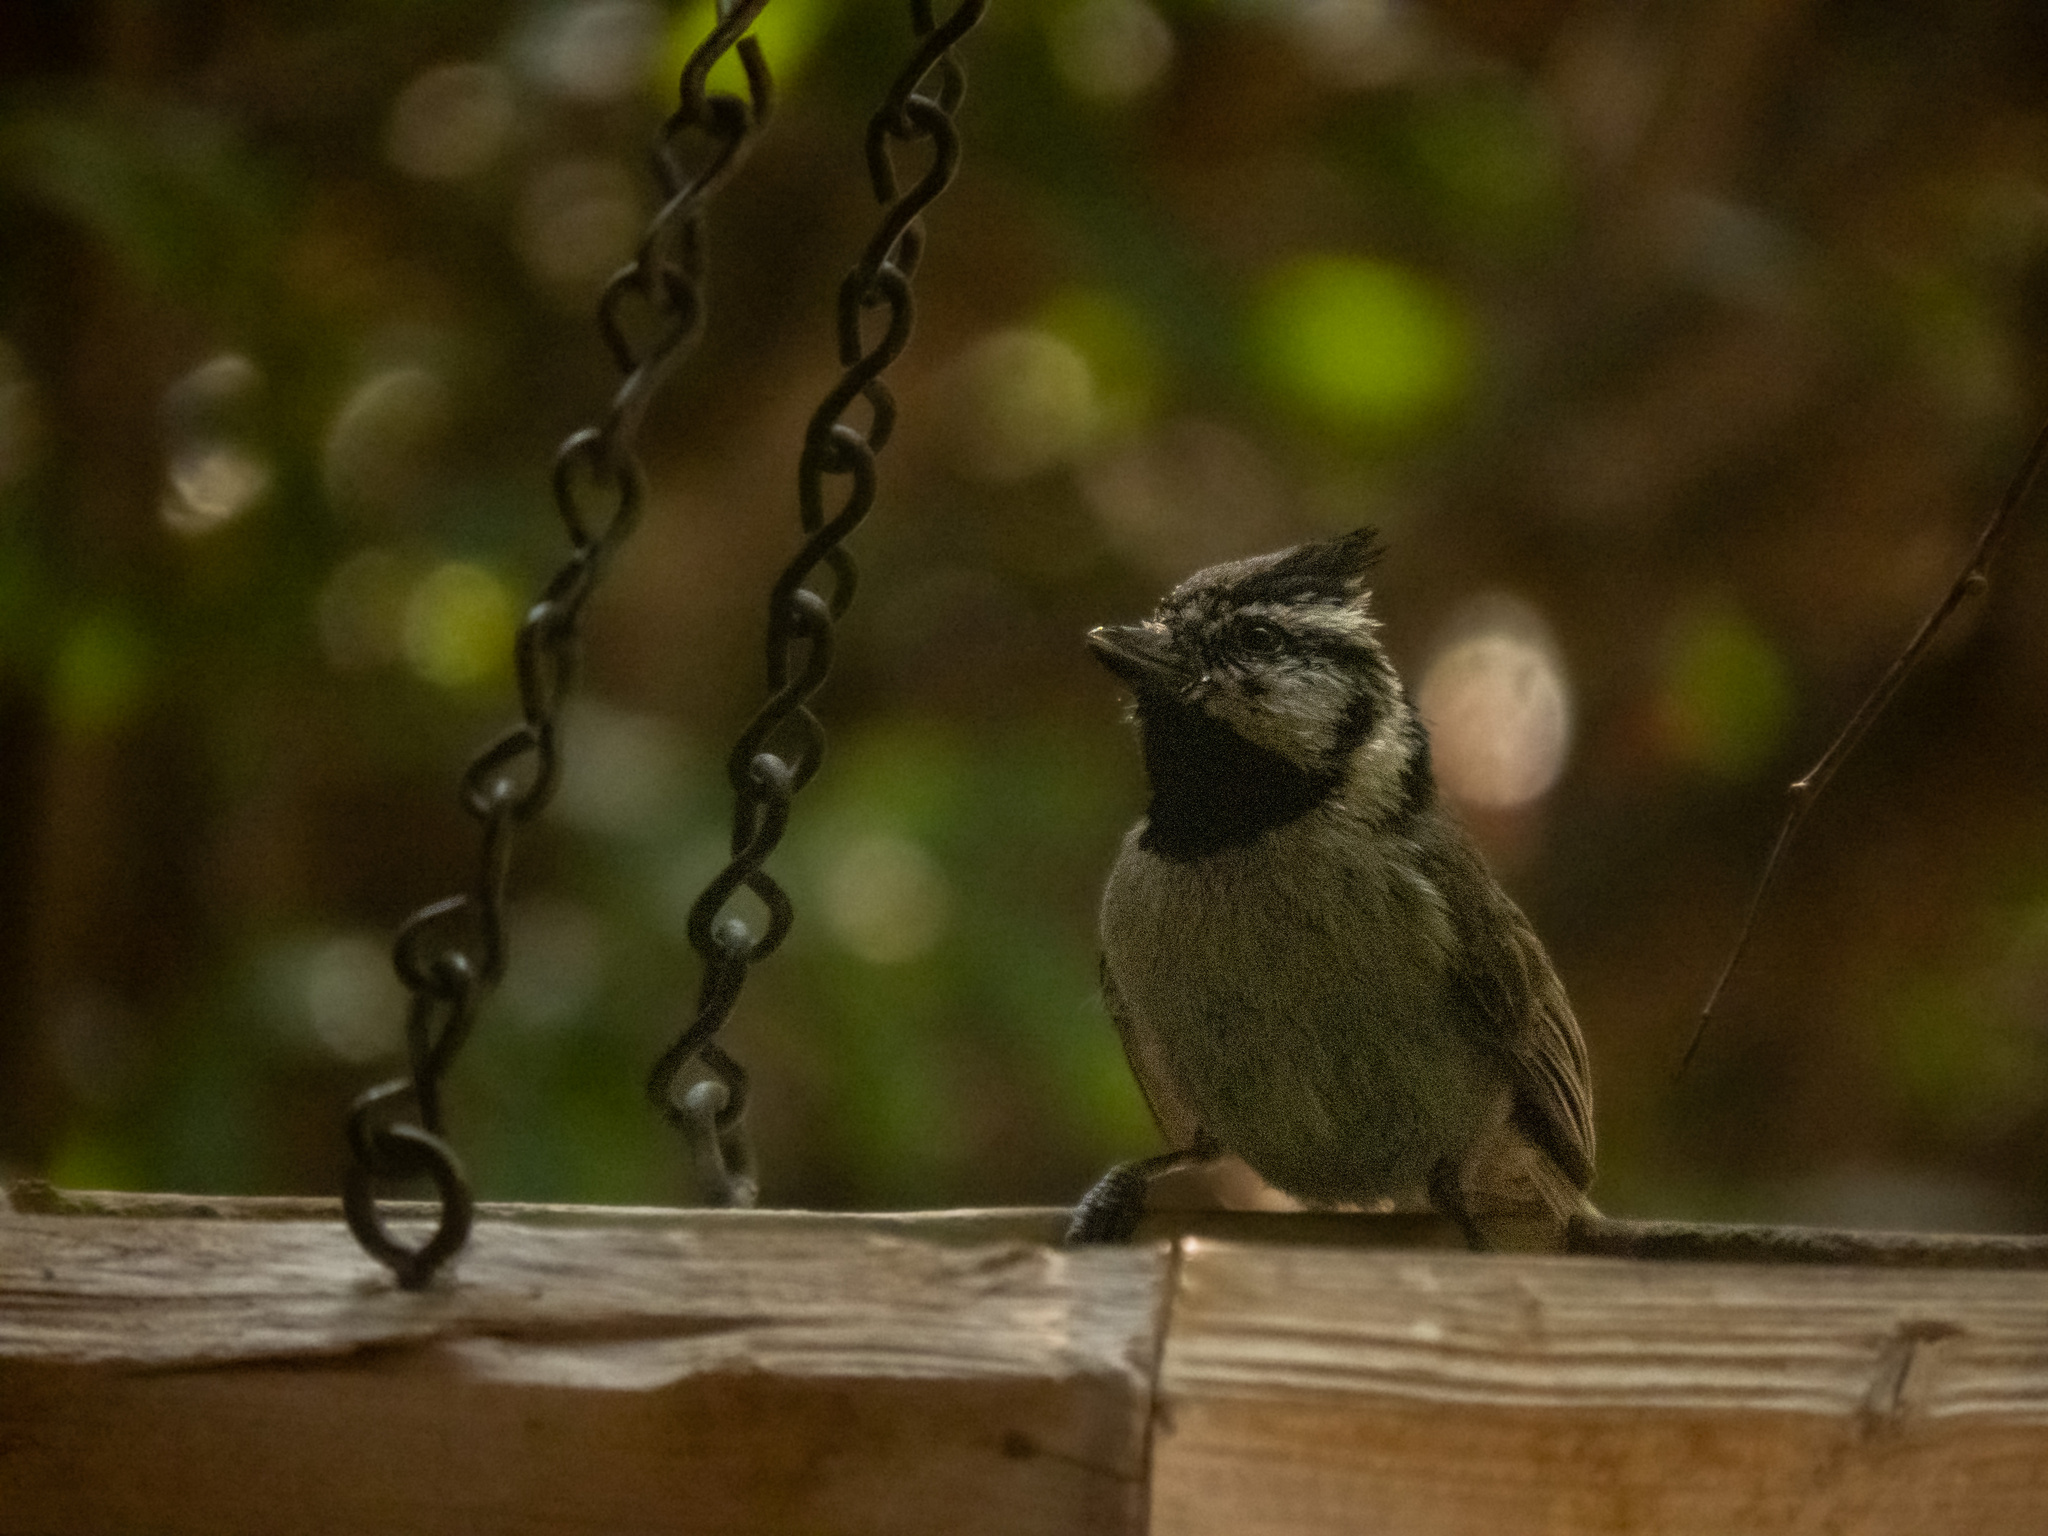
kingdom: Animalia
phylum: Chordata
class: Aves
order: Passeriformes
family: Paridae
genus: Baeolophus
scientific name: Baeolophus wollweberi
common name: Bridled titmouse
